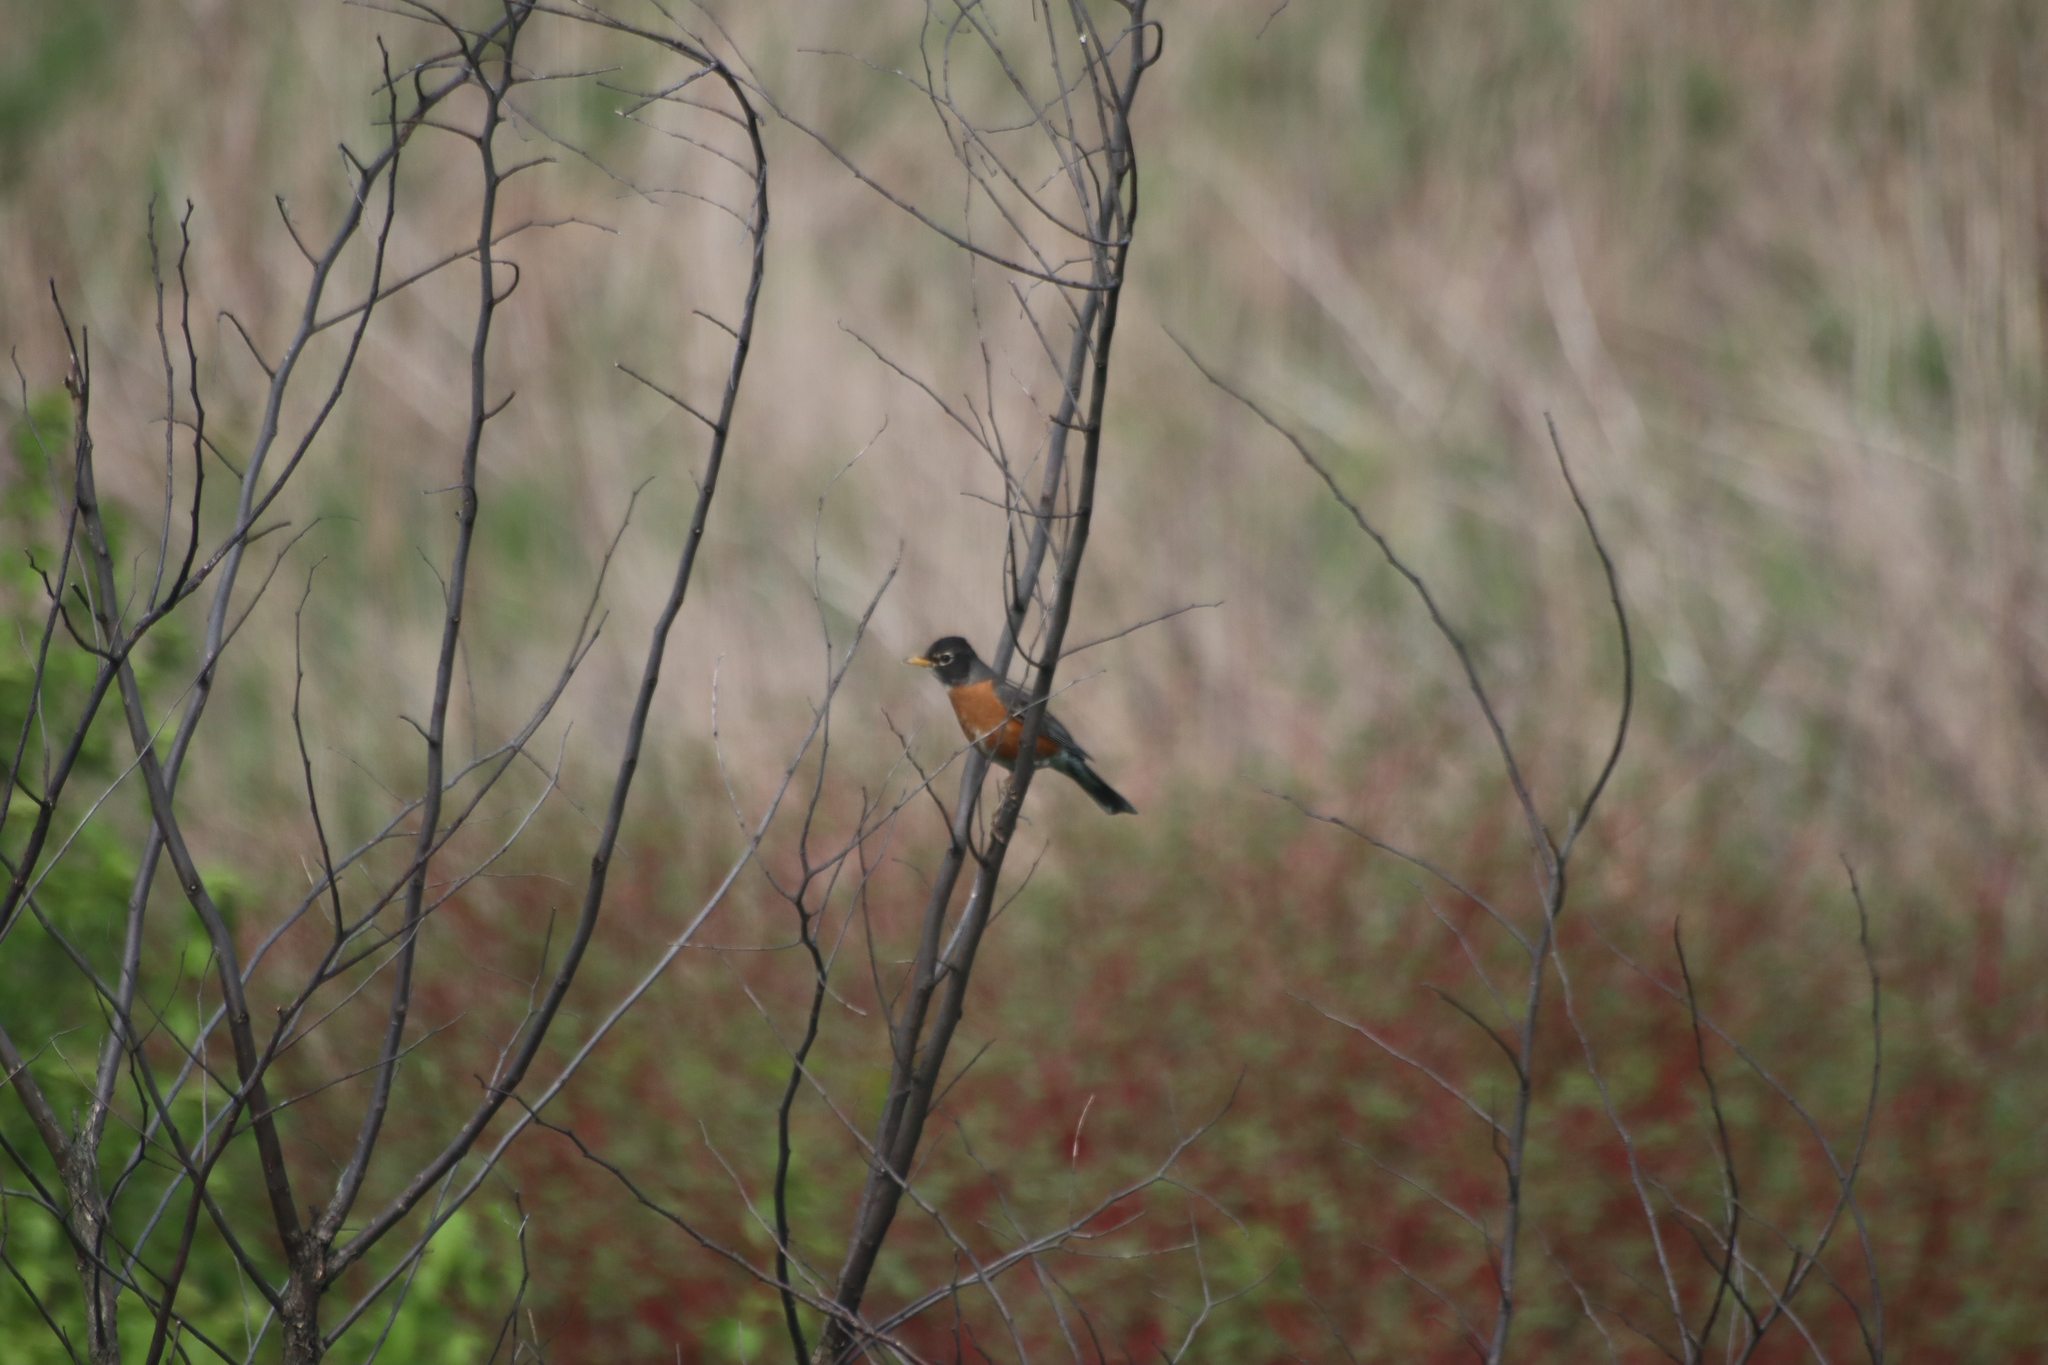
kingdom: Animalia
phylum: Chordata
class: Aves
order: Passeriformes
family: Turdidae
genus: Turdus
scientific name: Turdus migratorius
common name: American robin
